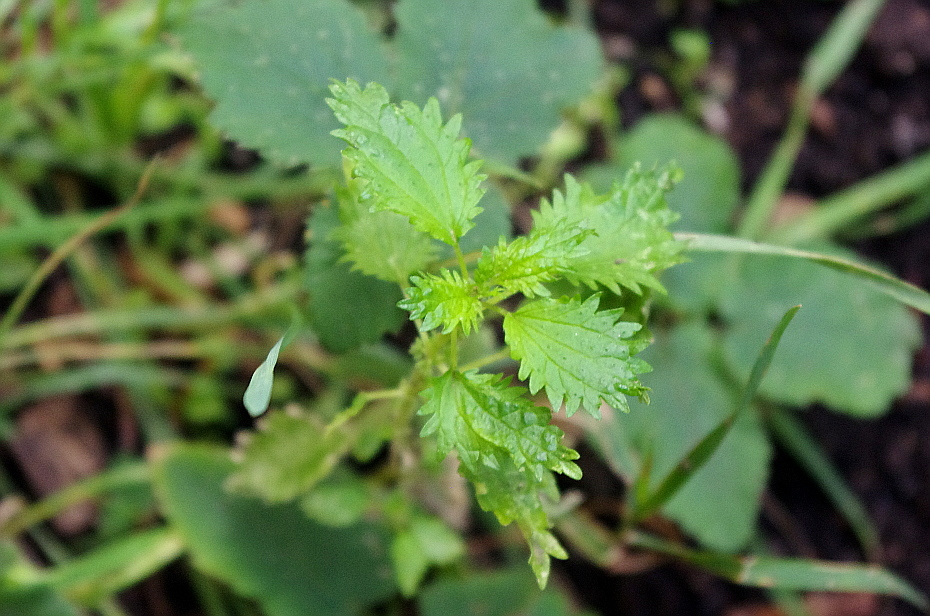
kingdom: Plantae
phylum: Tracheophyta
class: Magnoliopsida
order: Rosales
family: Urticaceae
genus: Urtica
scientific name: Urtica urens
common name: Dwarf nettle
